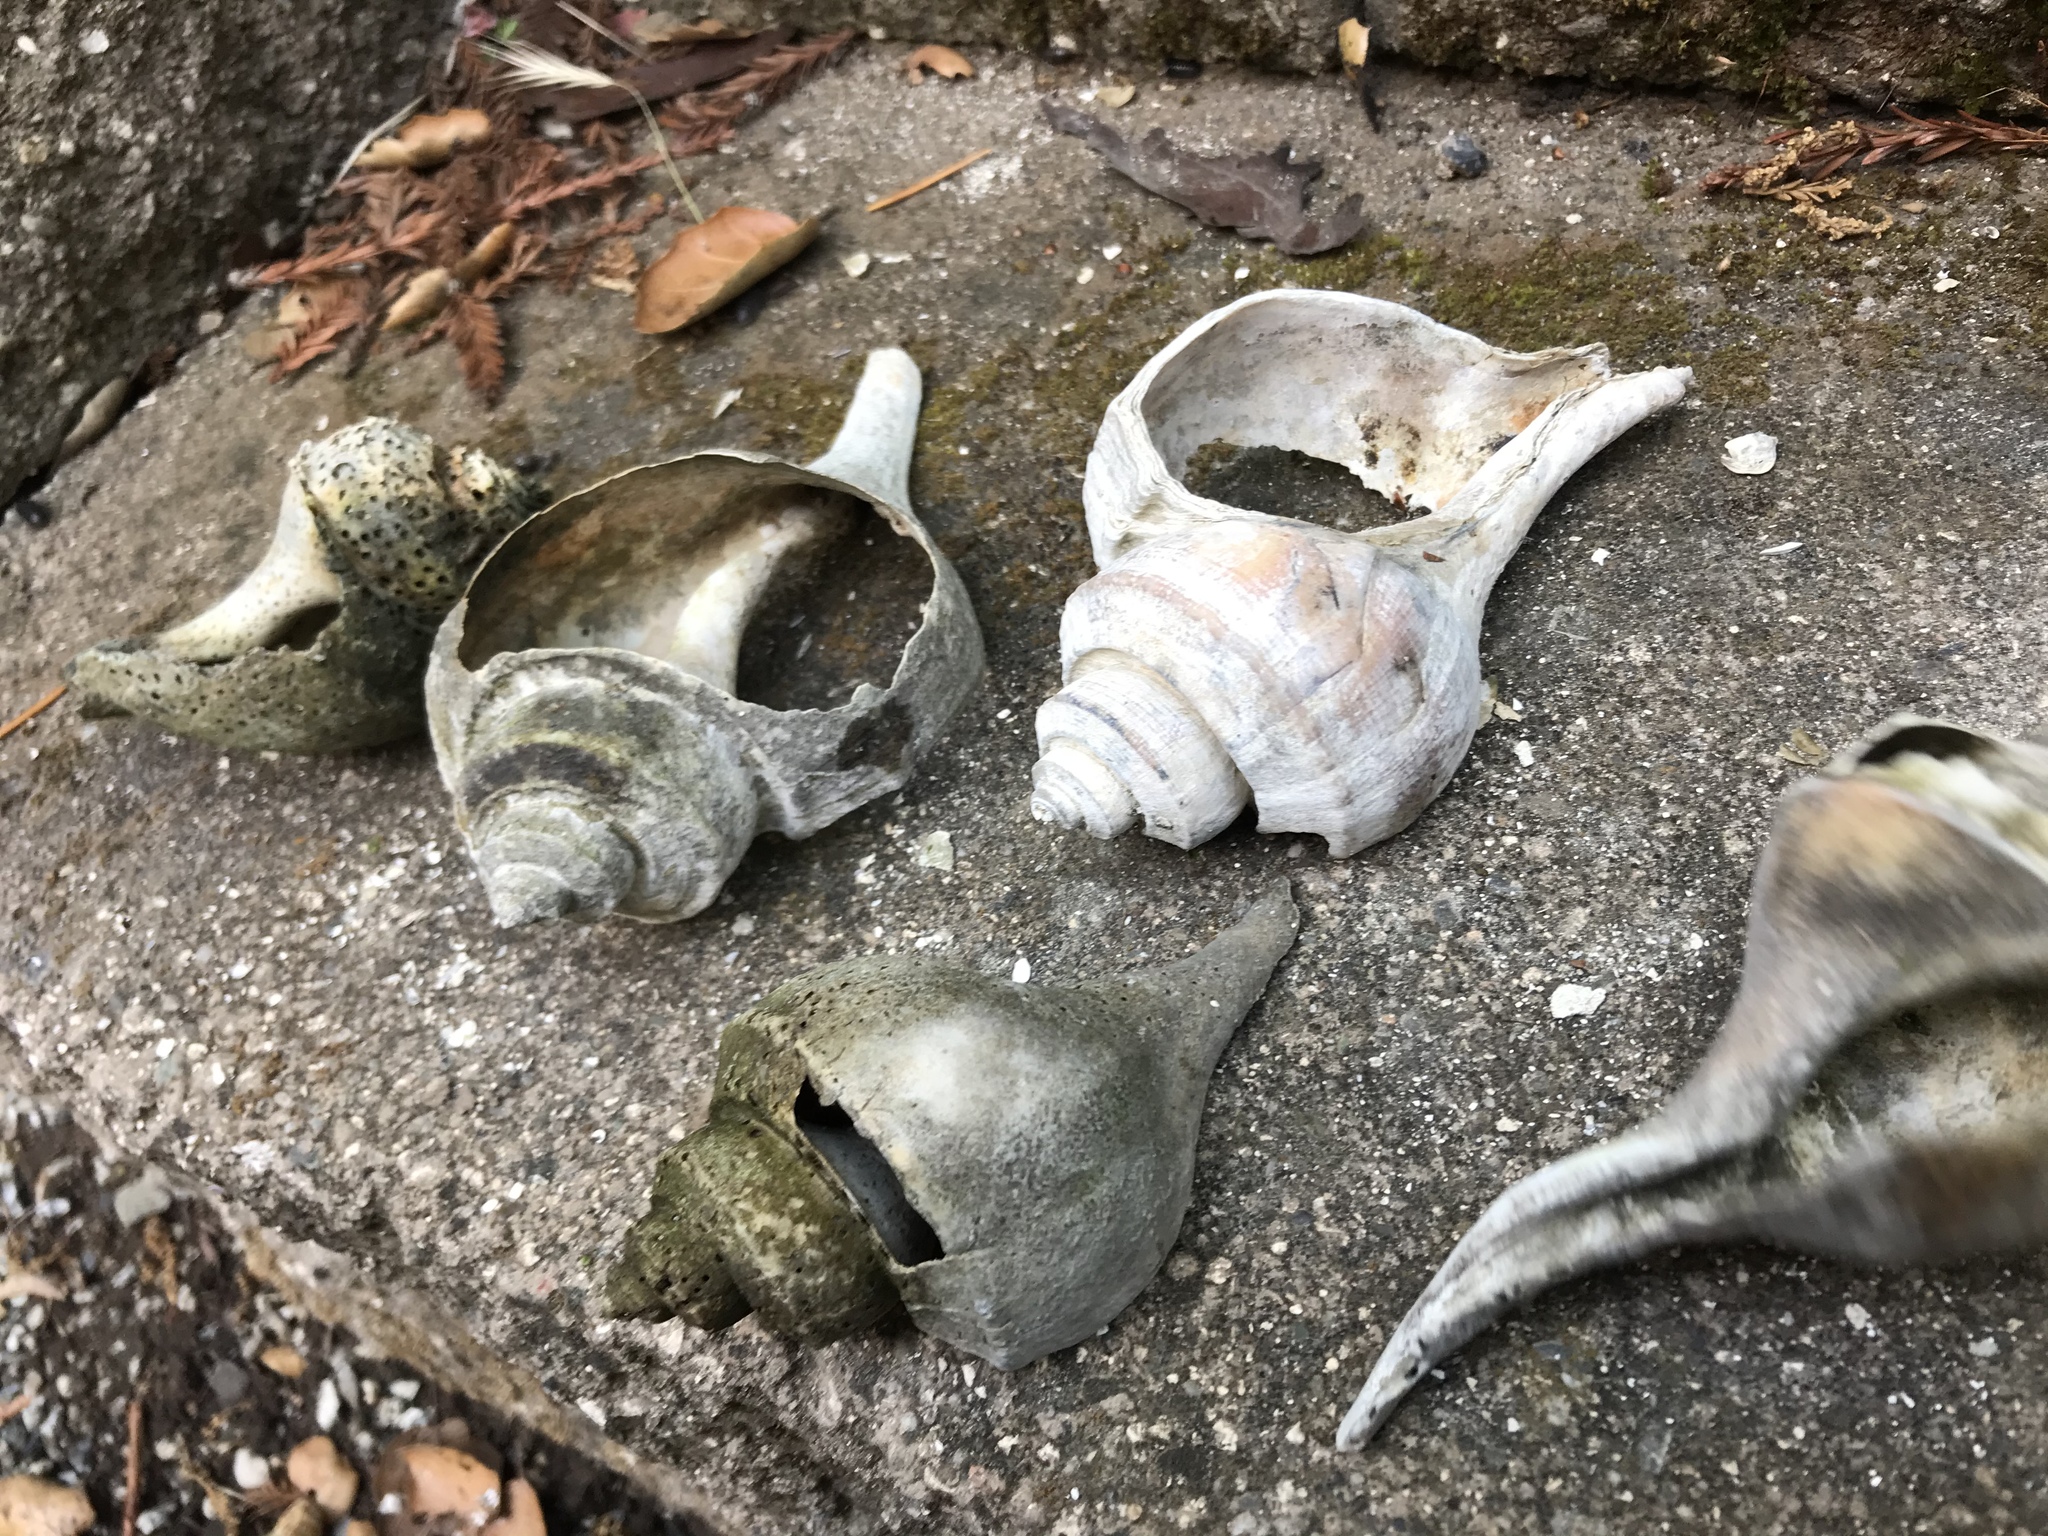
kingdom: Animalia
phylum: Mollusca
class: Gastropoda
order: Neogastropoda
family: Busyconidae
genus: Busycotypus
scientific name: Busycotypus canaliculatus
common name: Channeled whelk
